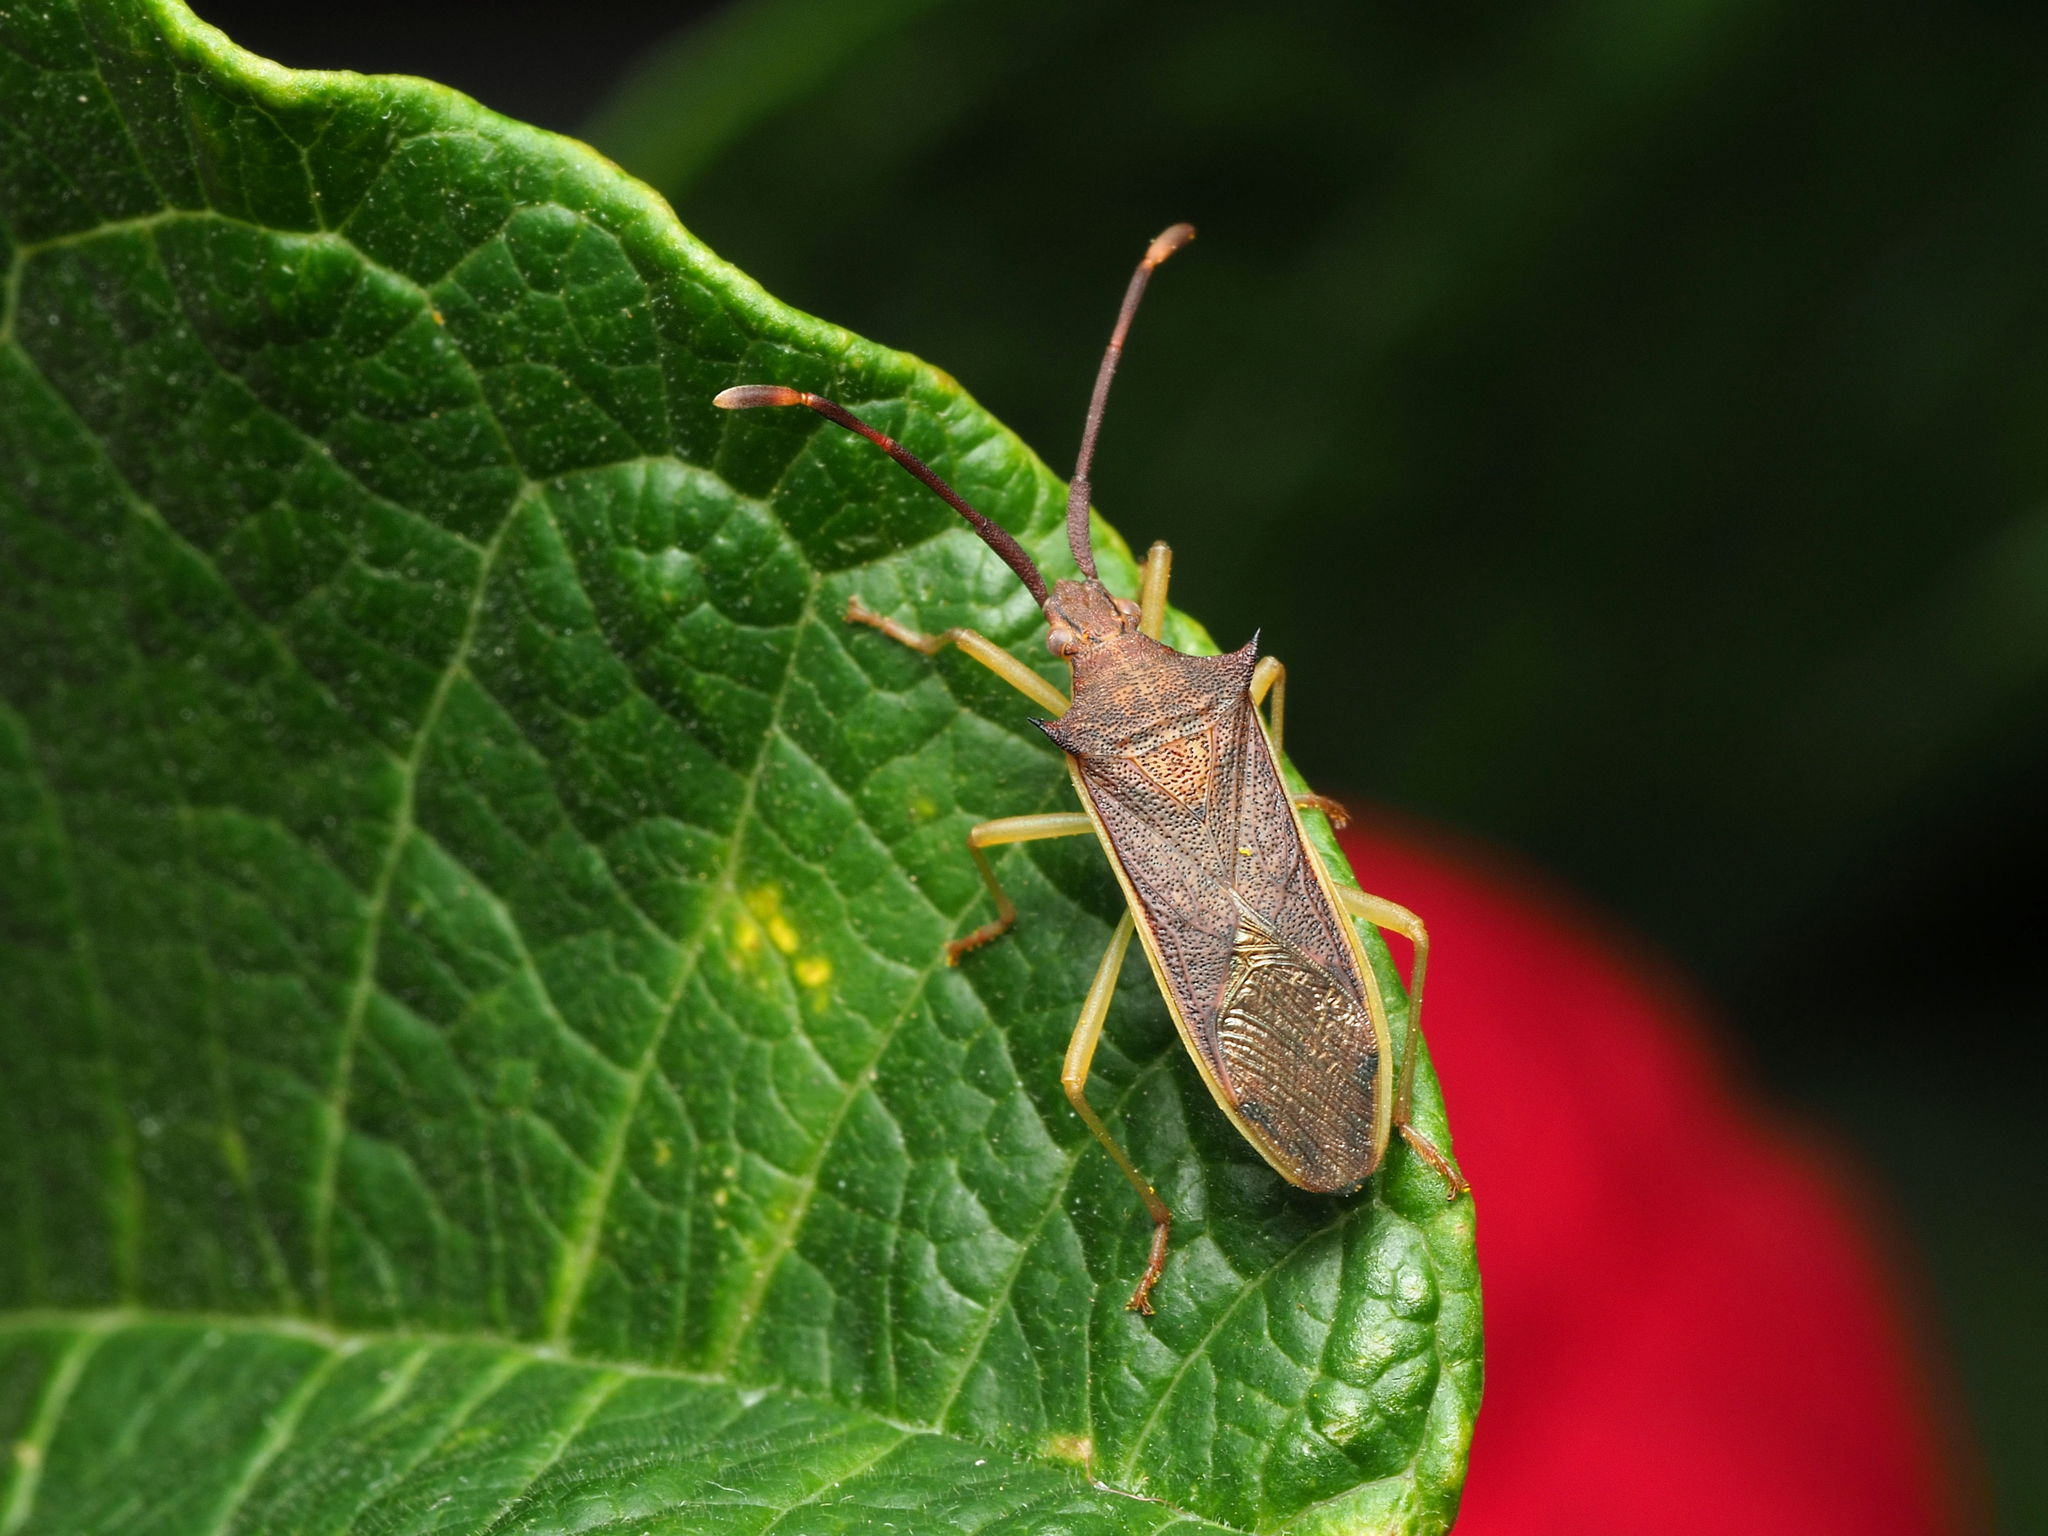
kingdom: Animalia
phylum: Arthropoda
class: Insecta
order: Hemiptera
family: Coreidae
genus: Plinachtus
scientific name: Plinachtus imitator
